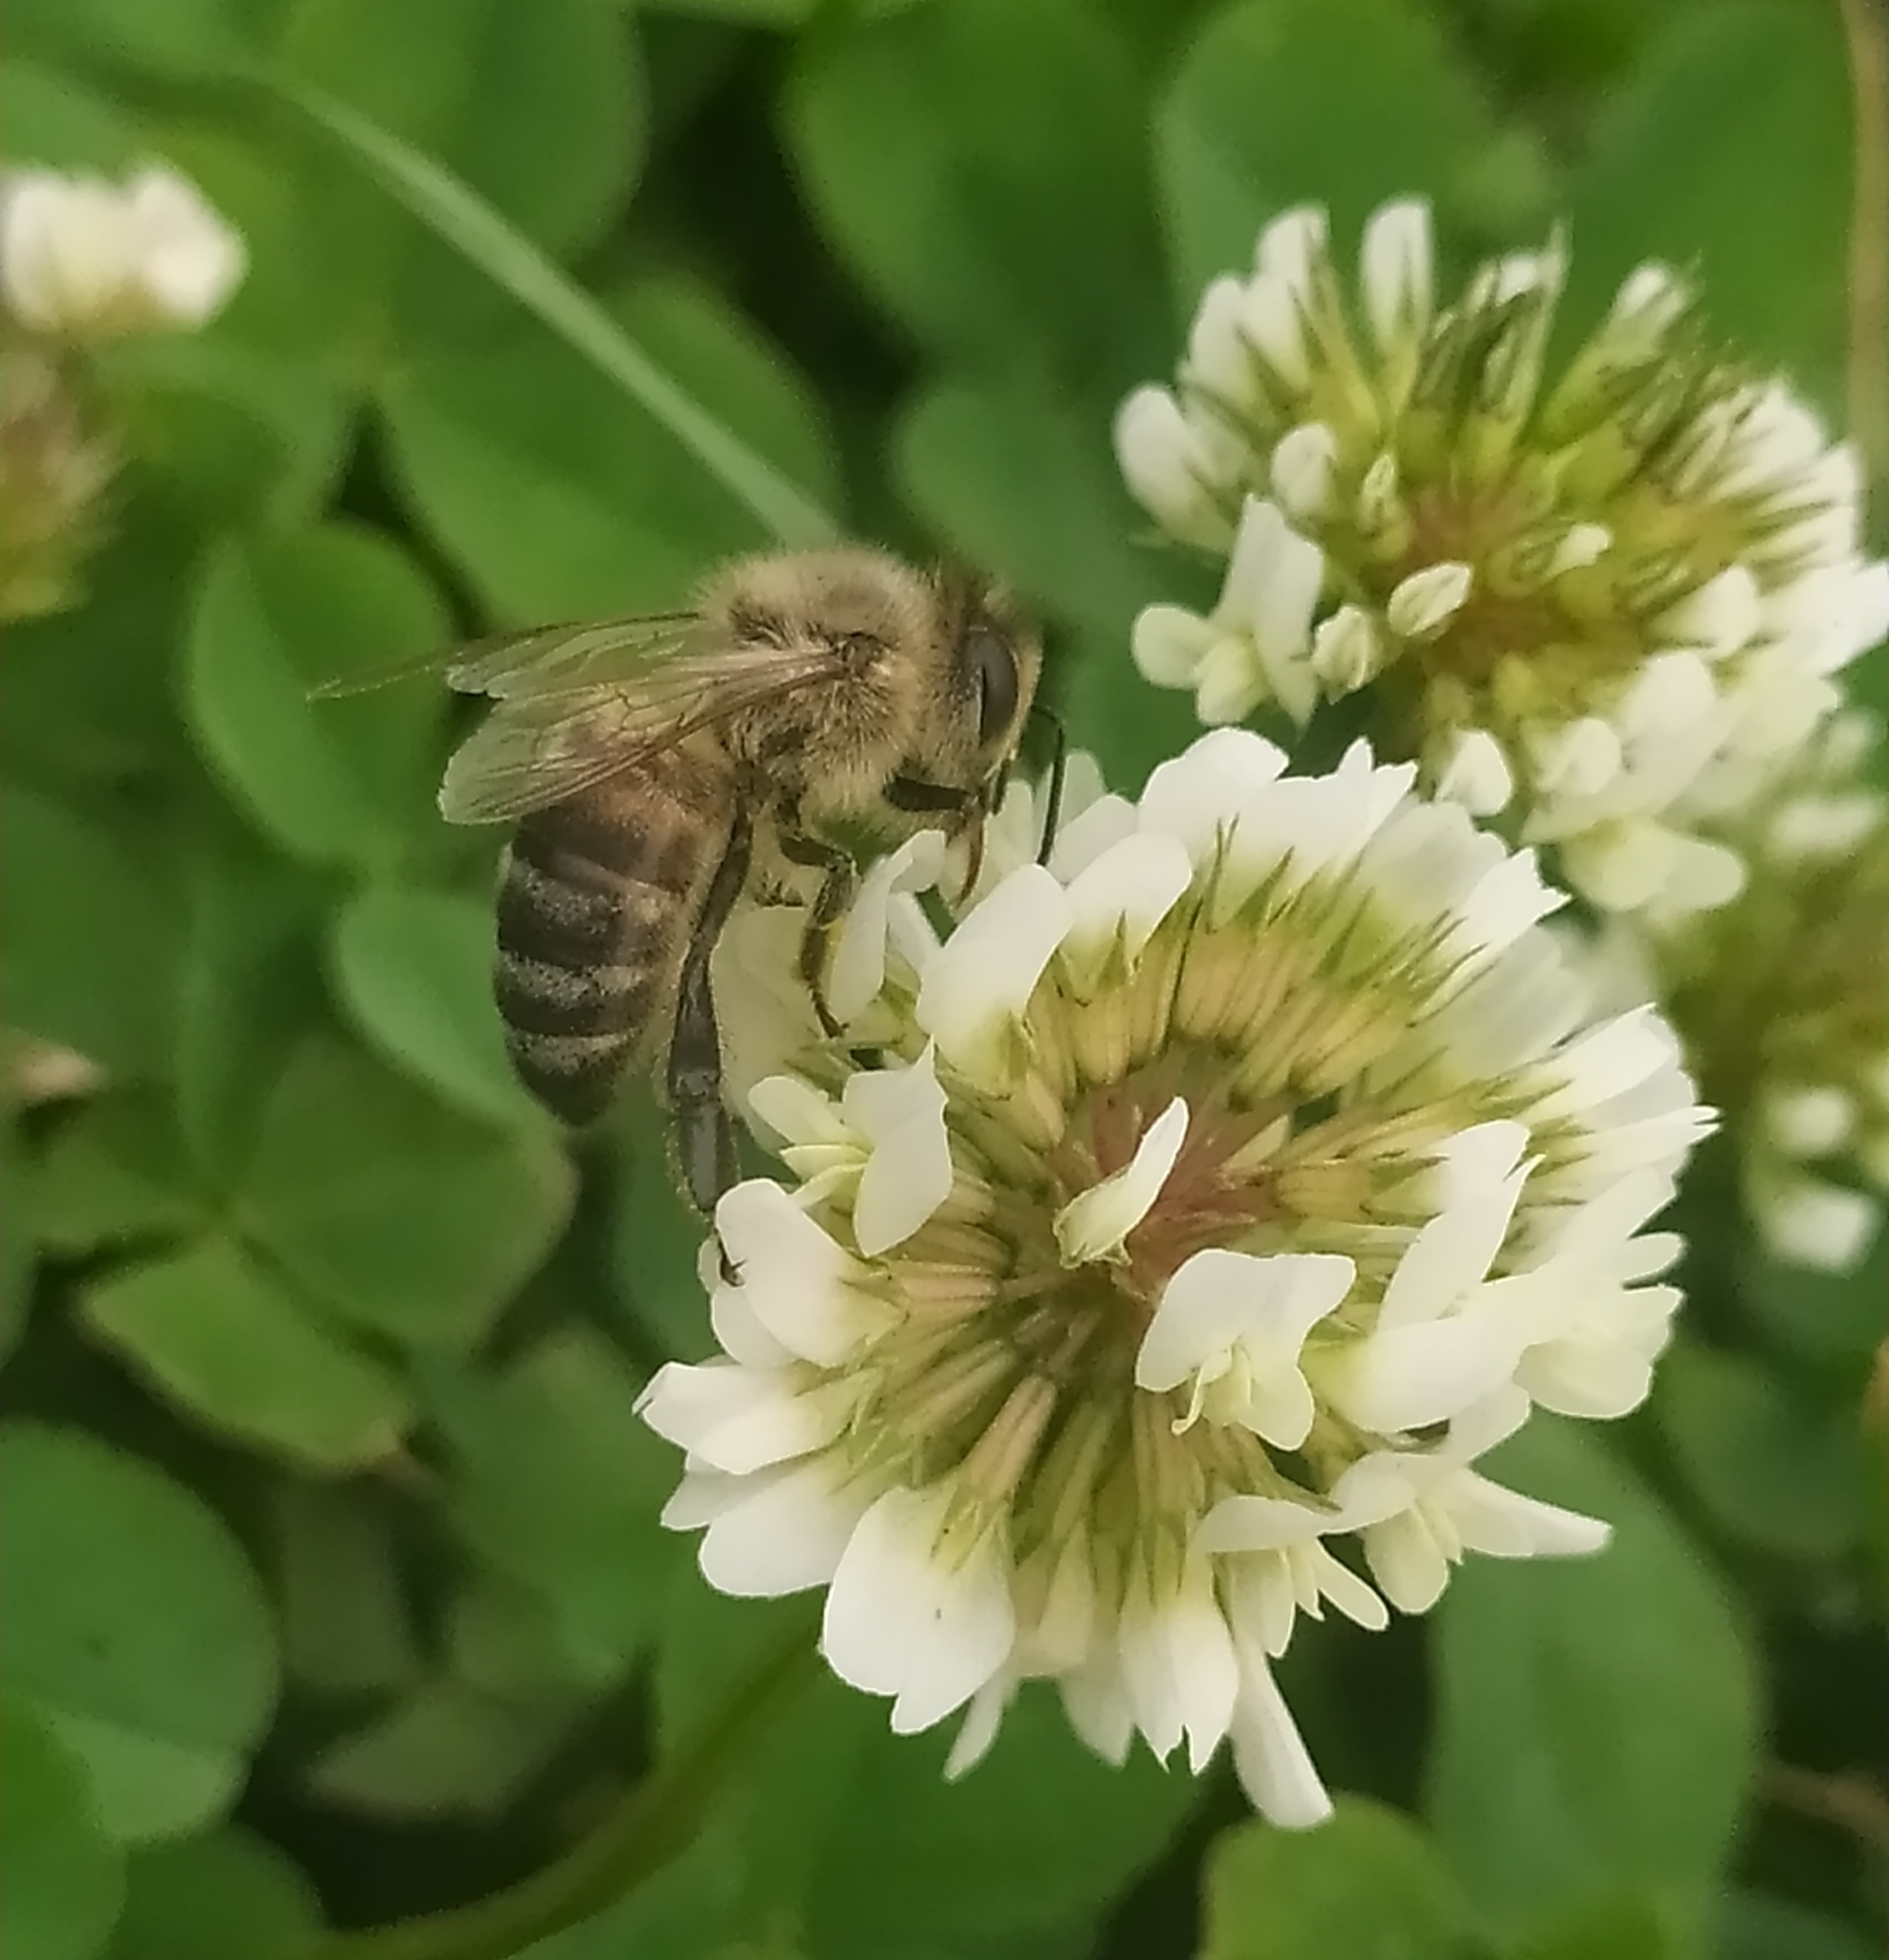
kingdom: Animalia
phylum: Arthropoda
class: Insecta
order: Hymenoptera
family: Apidae
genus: Apis
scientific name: Apis mellifera
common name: Honey bee
